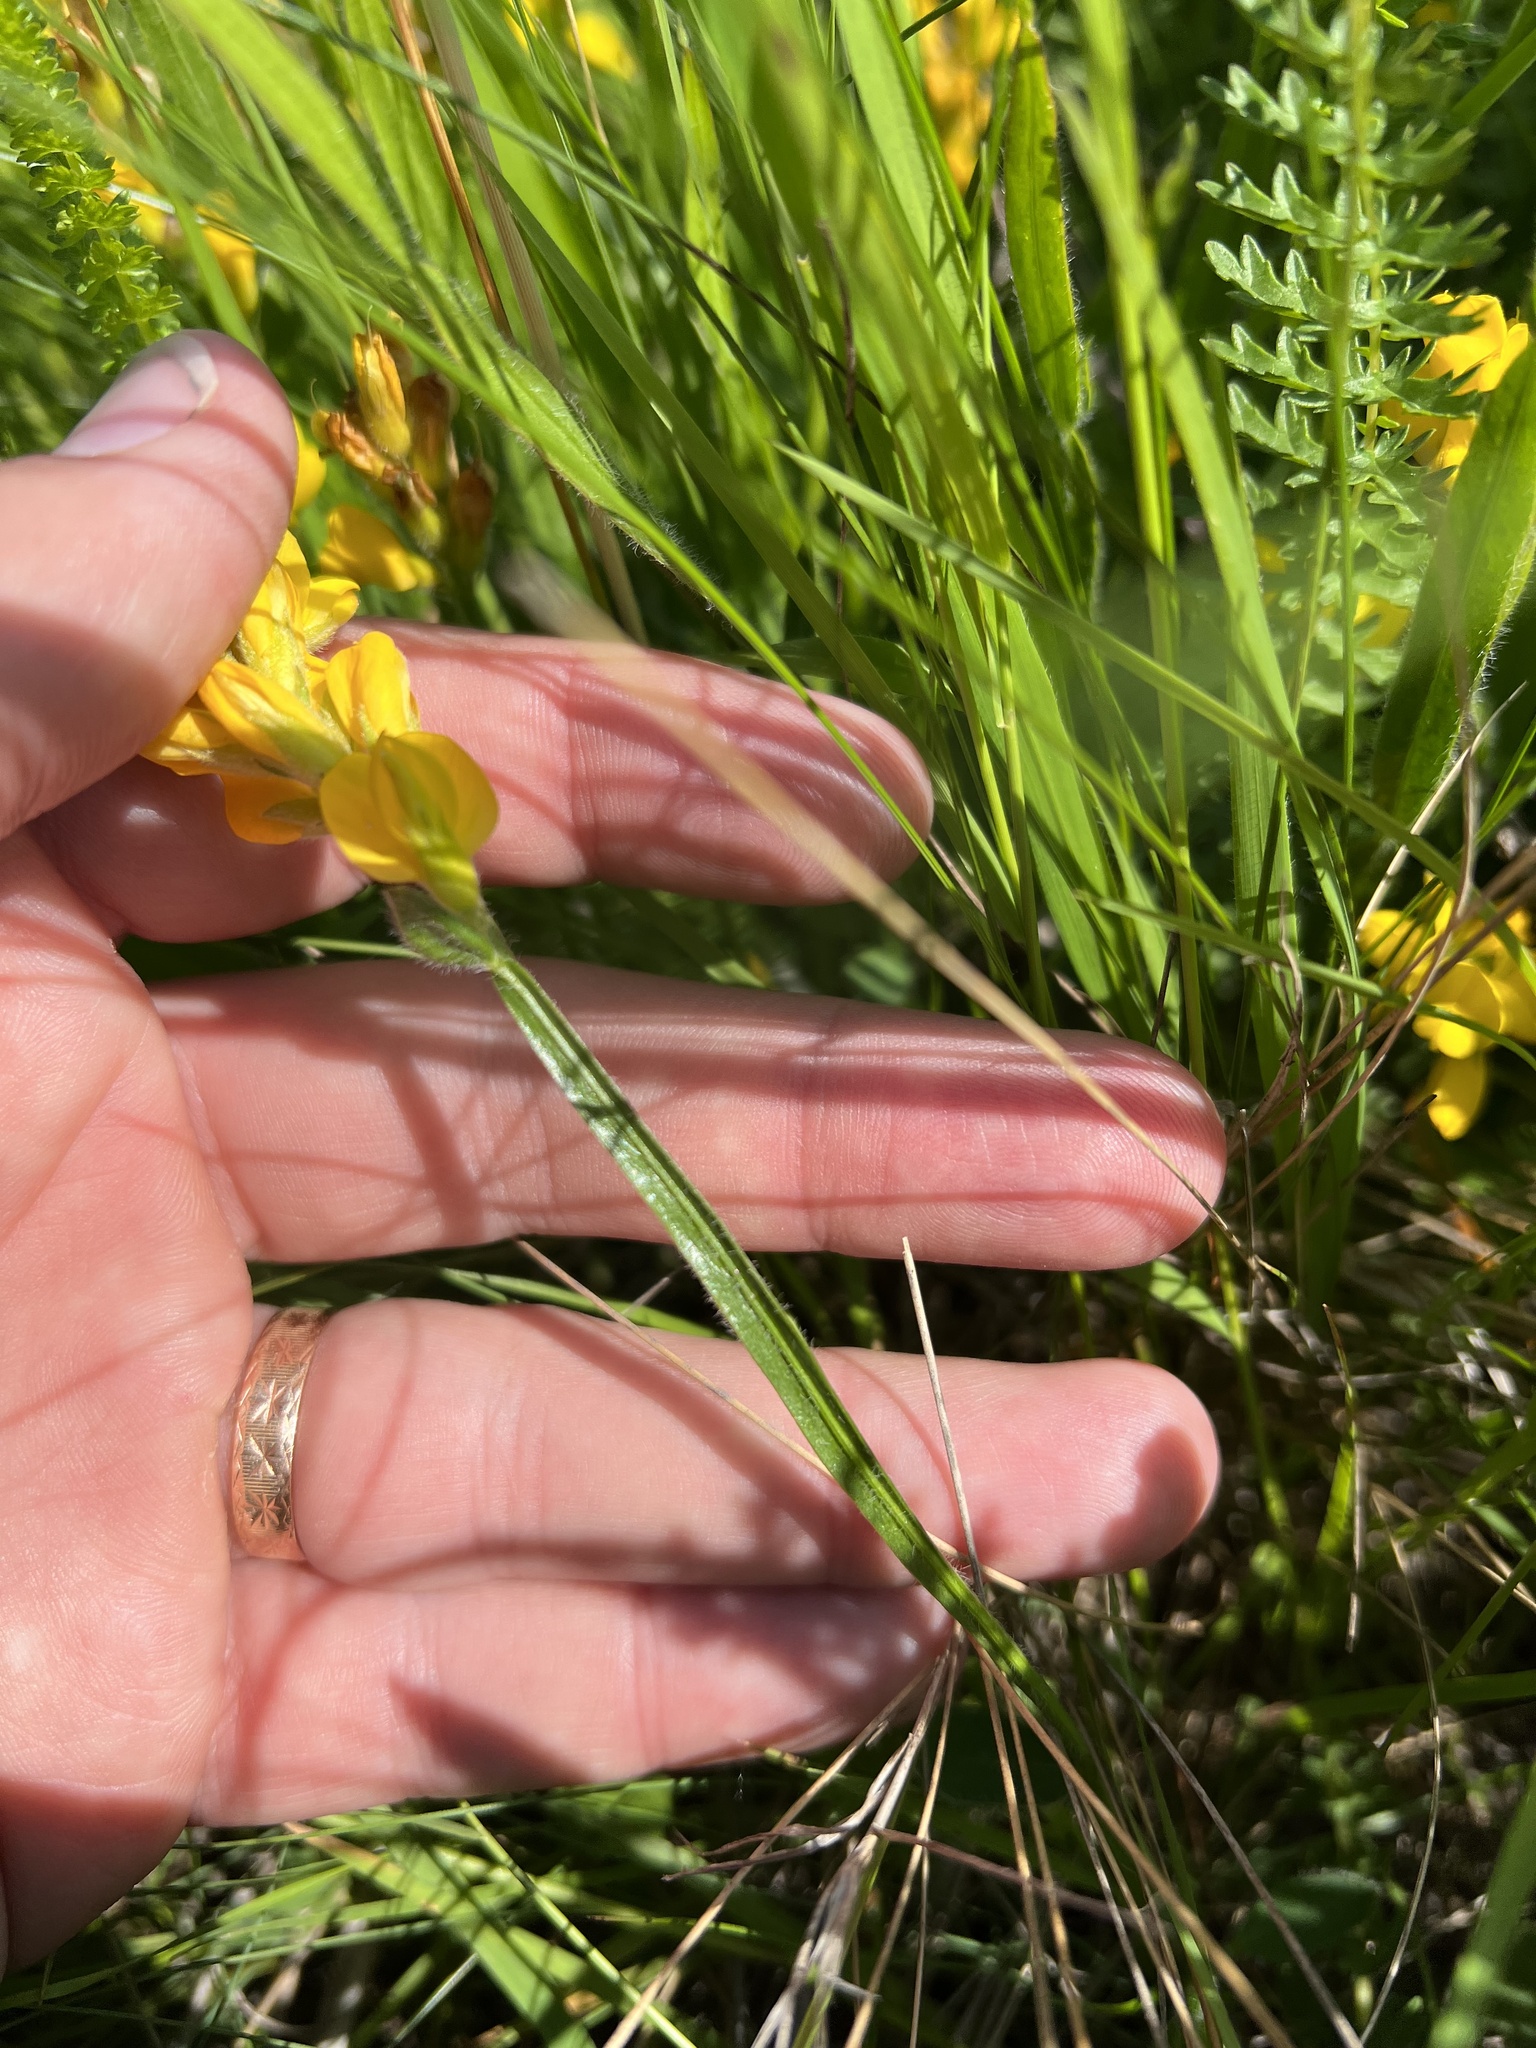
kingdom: Plantae
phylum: Tracheophyta
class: Magnoliopsida
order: Fabales
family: Fabaceae
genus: Genista
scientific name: Genista sagittalis
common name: Winged greenweed
